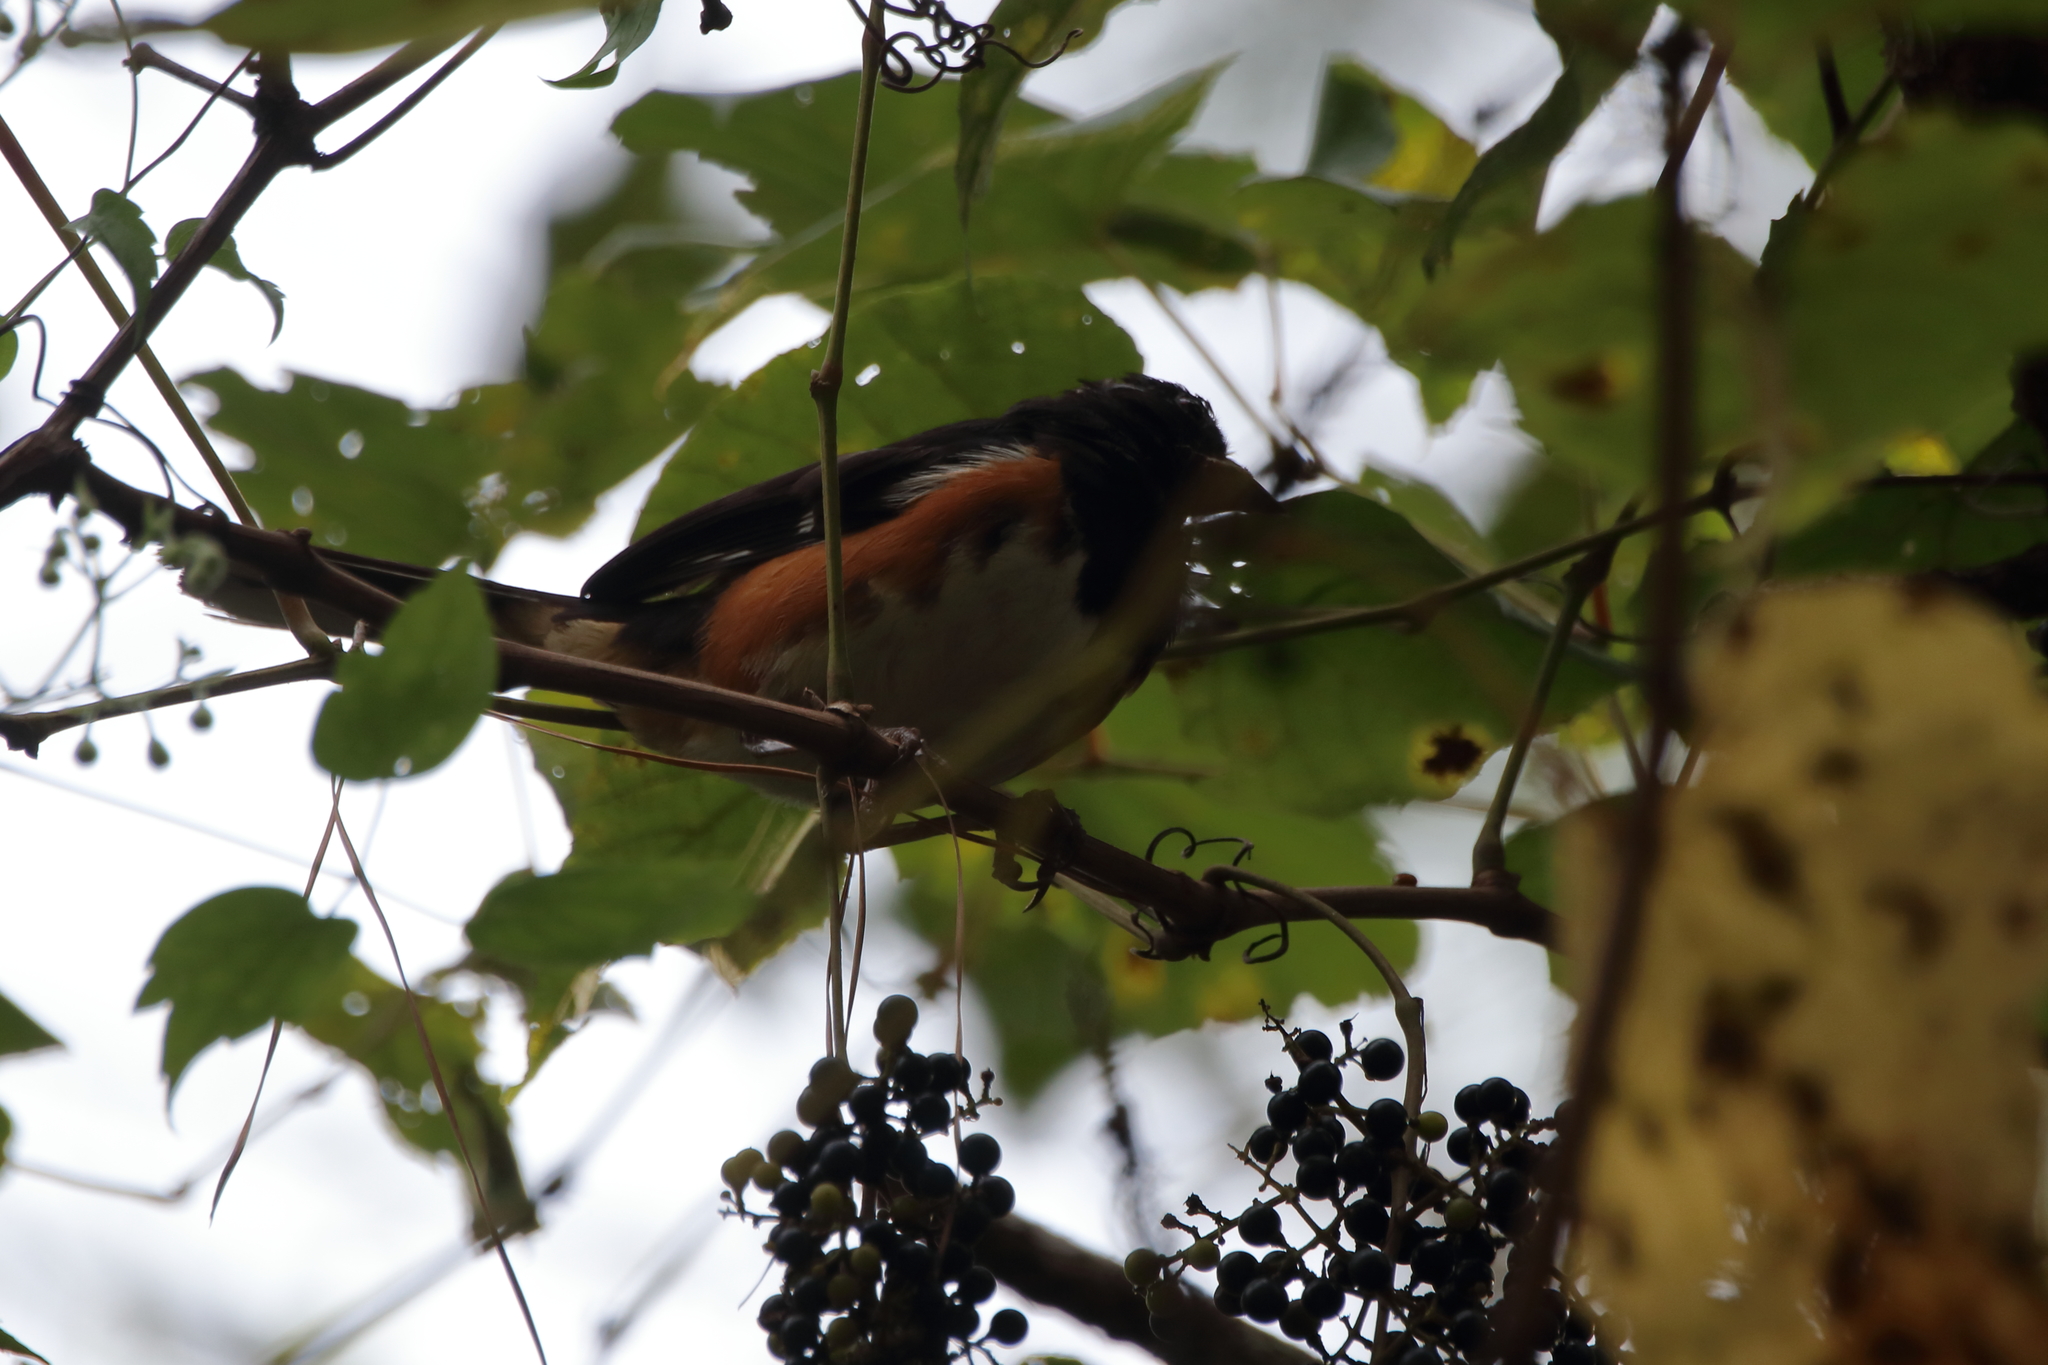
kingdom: Animalia
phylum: Chordata
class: Aves
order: Passeriformes
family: Passerellidae
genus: Pipilo
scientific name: Pipilo erythrophthalmus
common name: Eastern towhee
